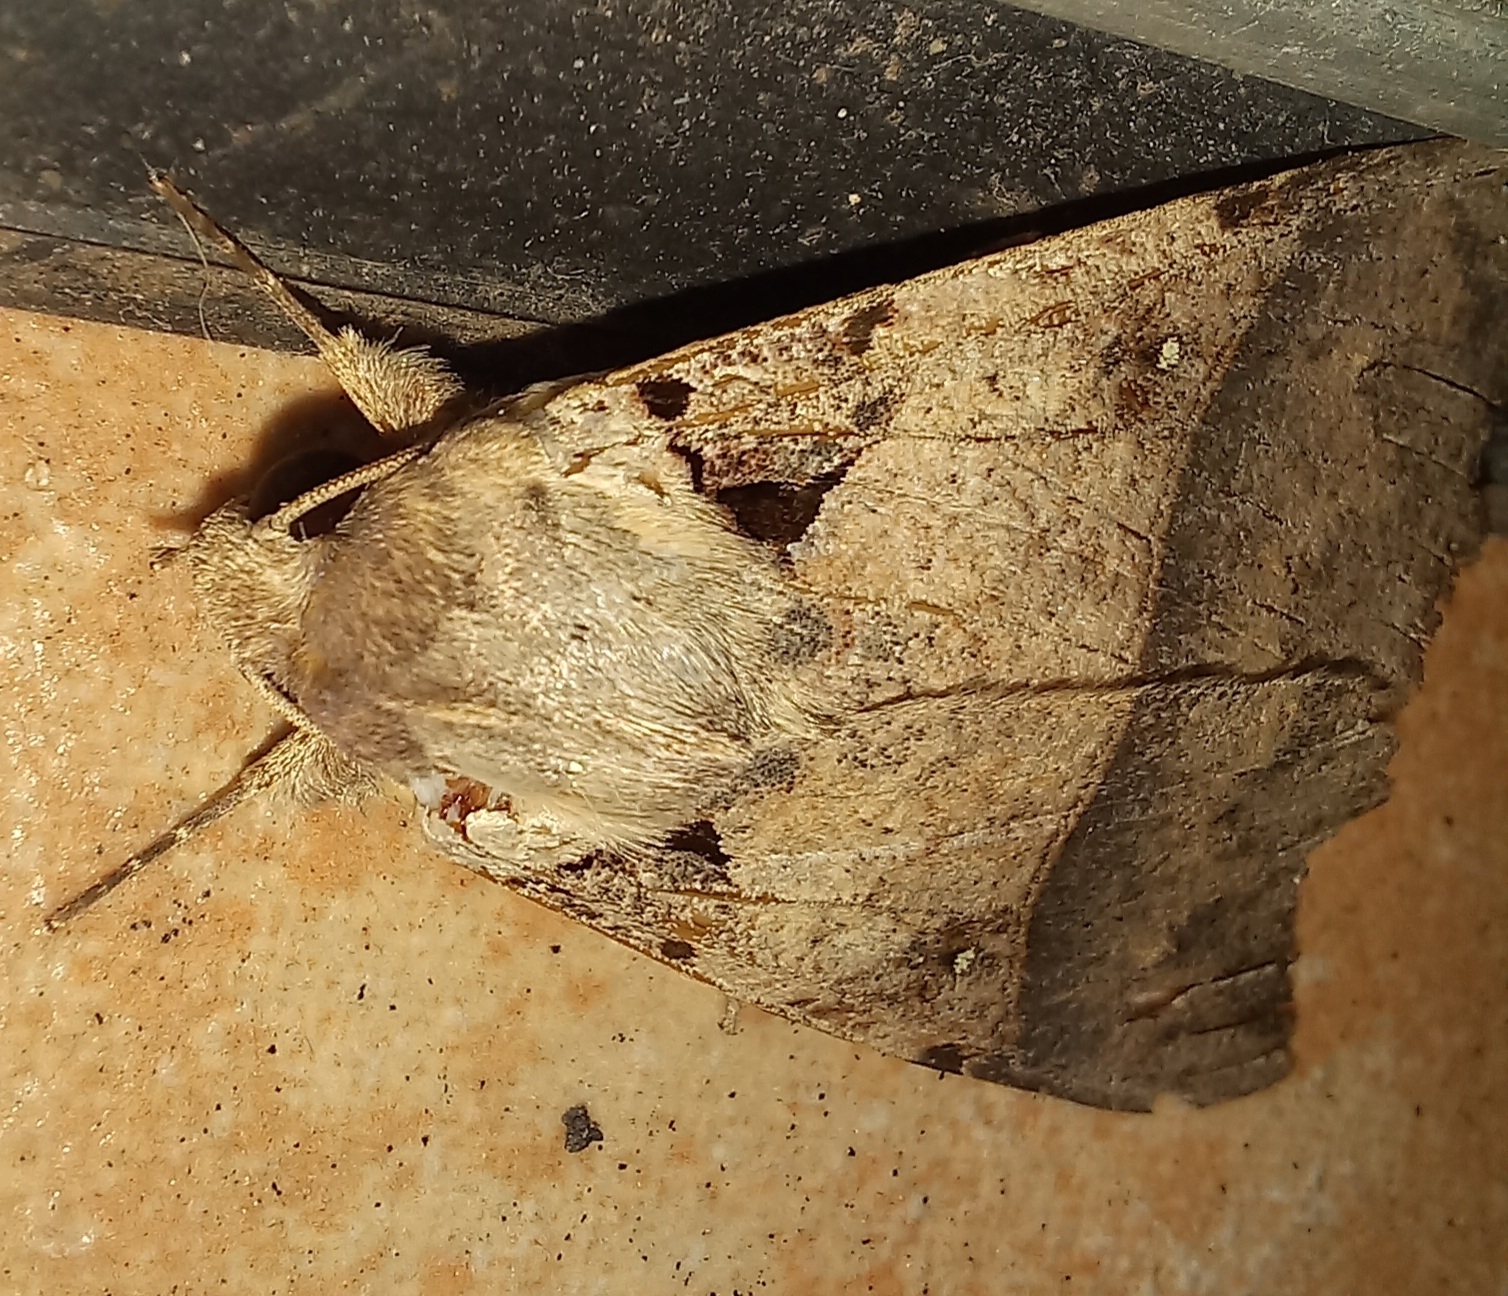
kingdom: Animalia
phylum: Arthropoda
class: Insecta
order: Lepidoptera
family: Erebidae
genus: Serrodes
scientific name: Serrodes campana
